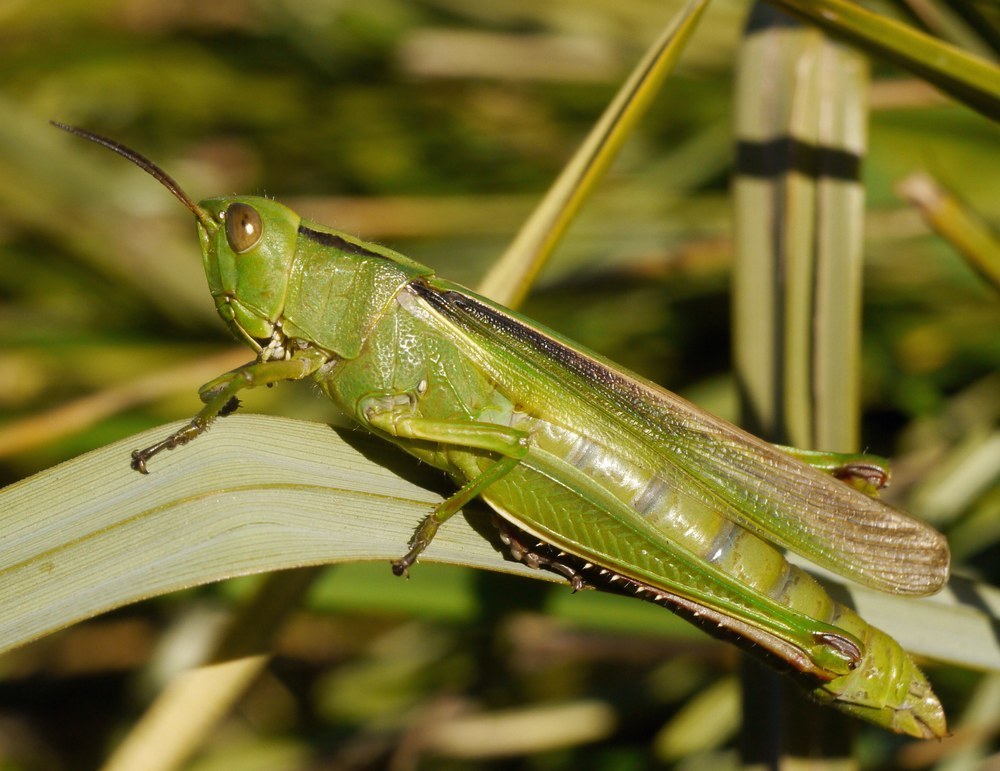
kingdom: Animalia
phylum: Arthropoda
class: Insecta
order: Orthoptera
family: Acrididae
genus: Paracinema
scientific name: Paracinema tricolor
